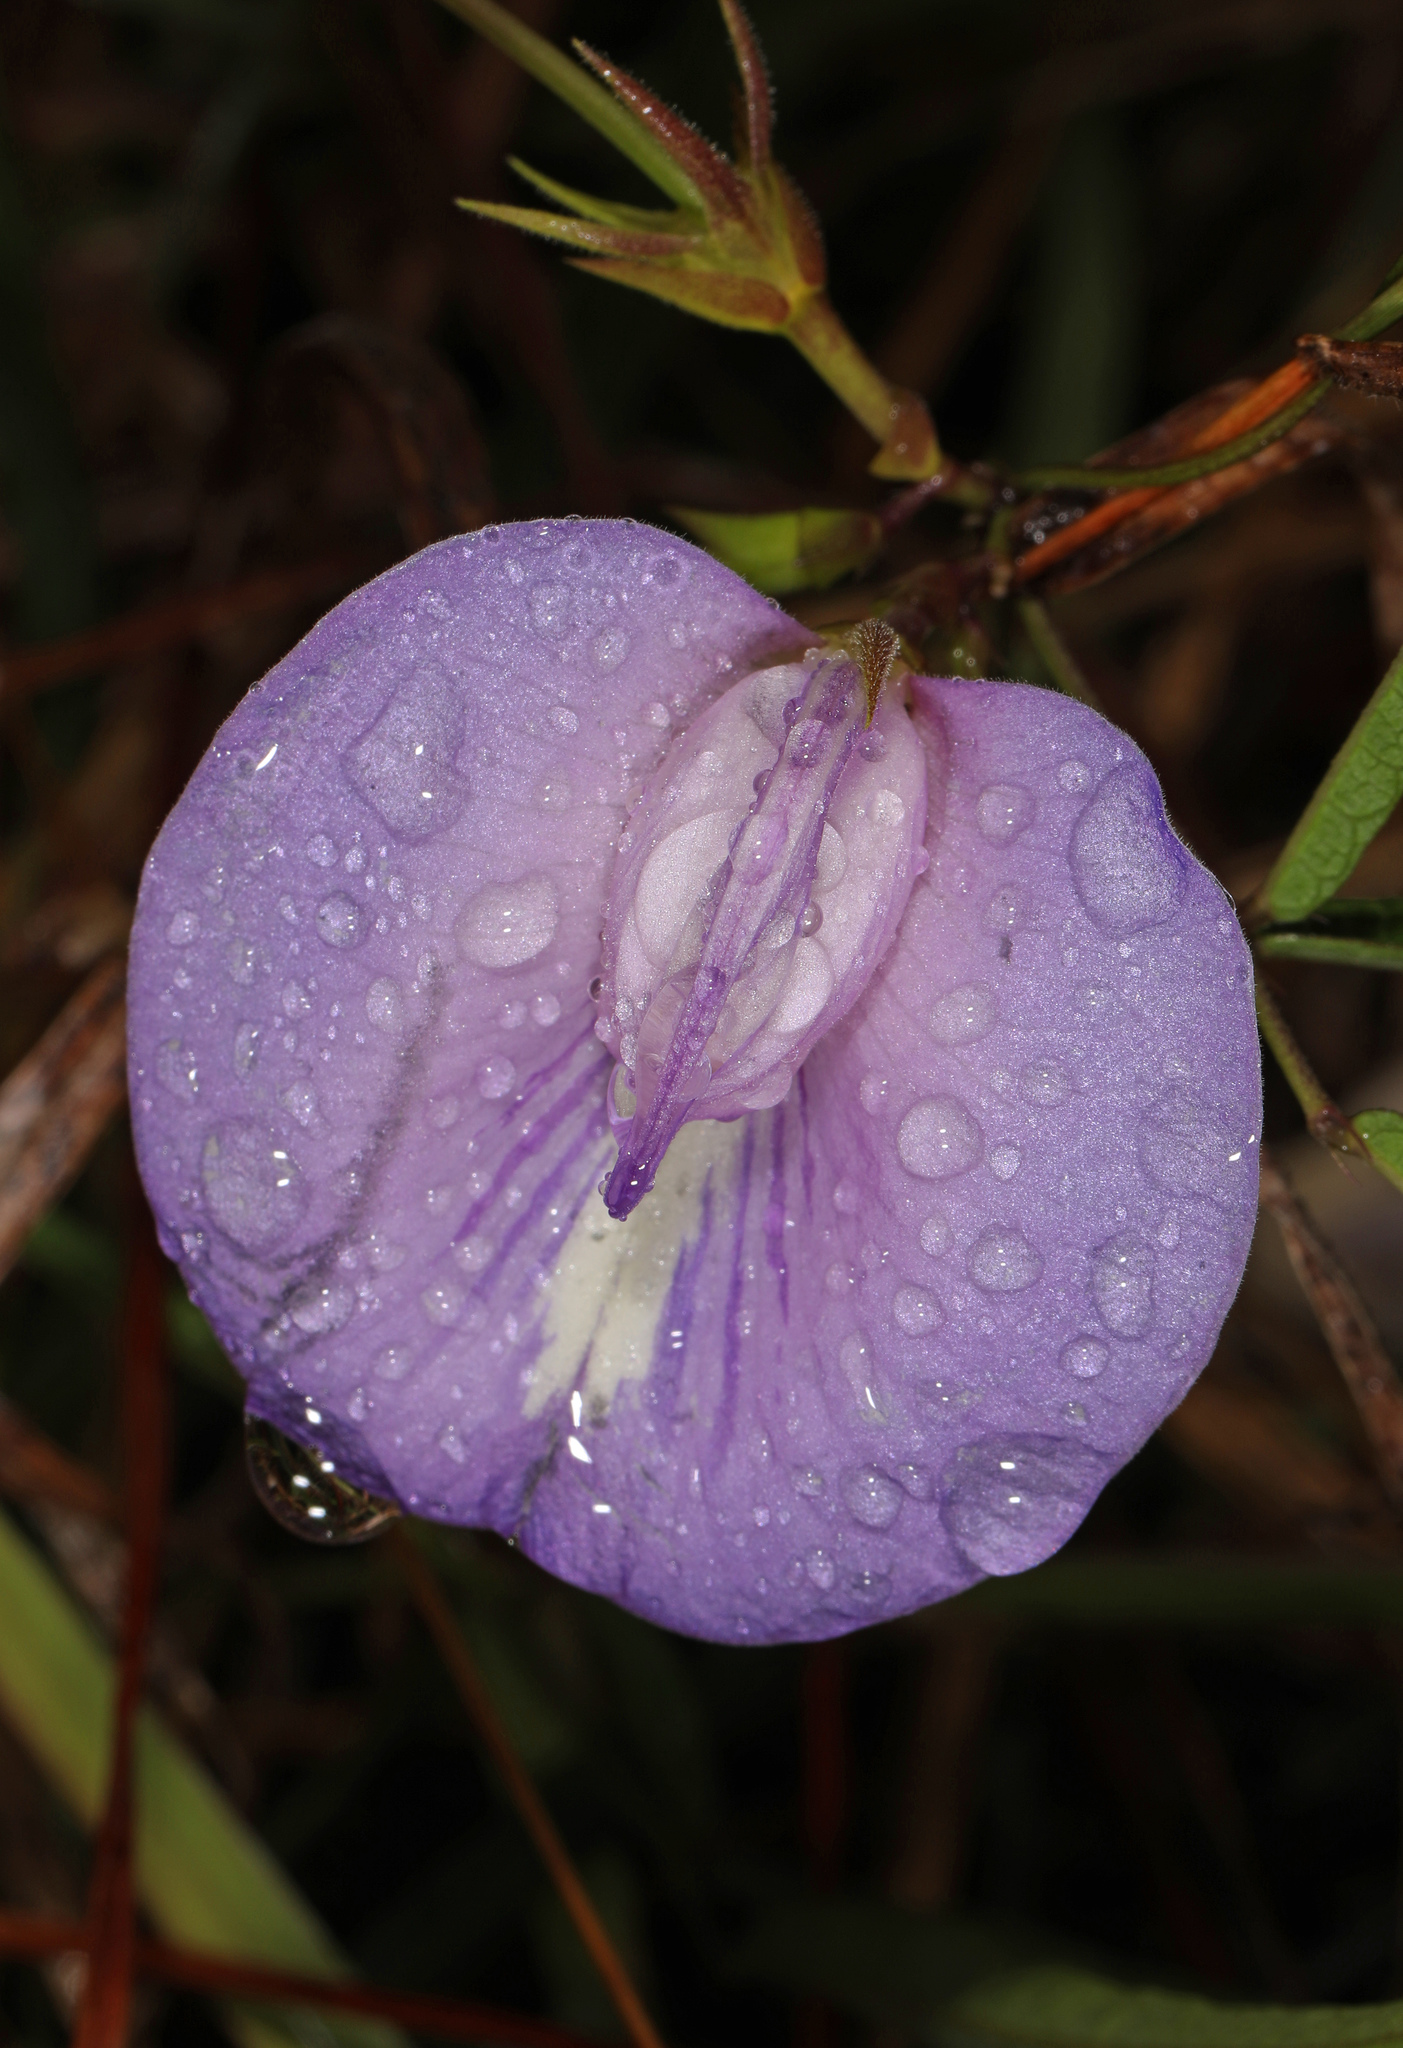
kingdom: Plantae
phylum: Tracheophyta
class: Magnoliopsida
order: Fabales
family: Fabaceae
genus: Centrosema
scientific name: Centrosema virginianum
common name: Butterfly-pea
